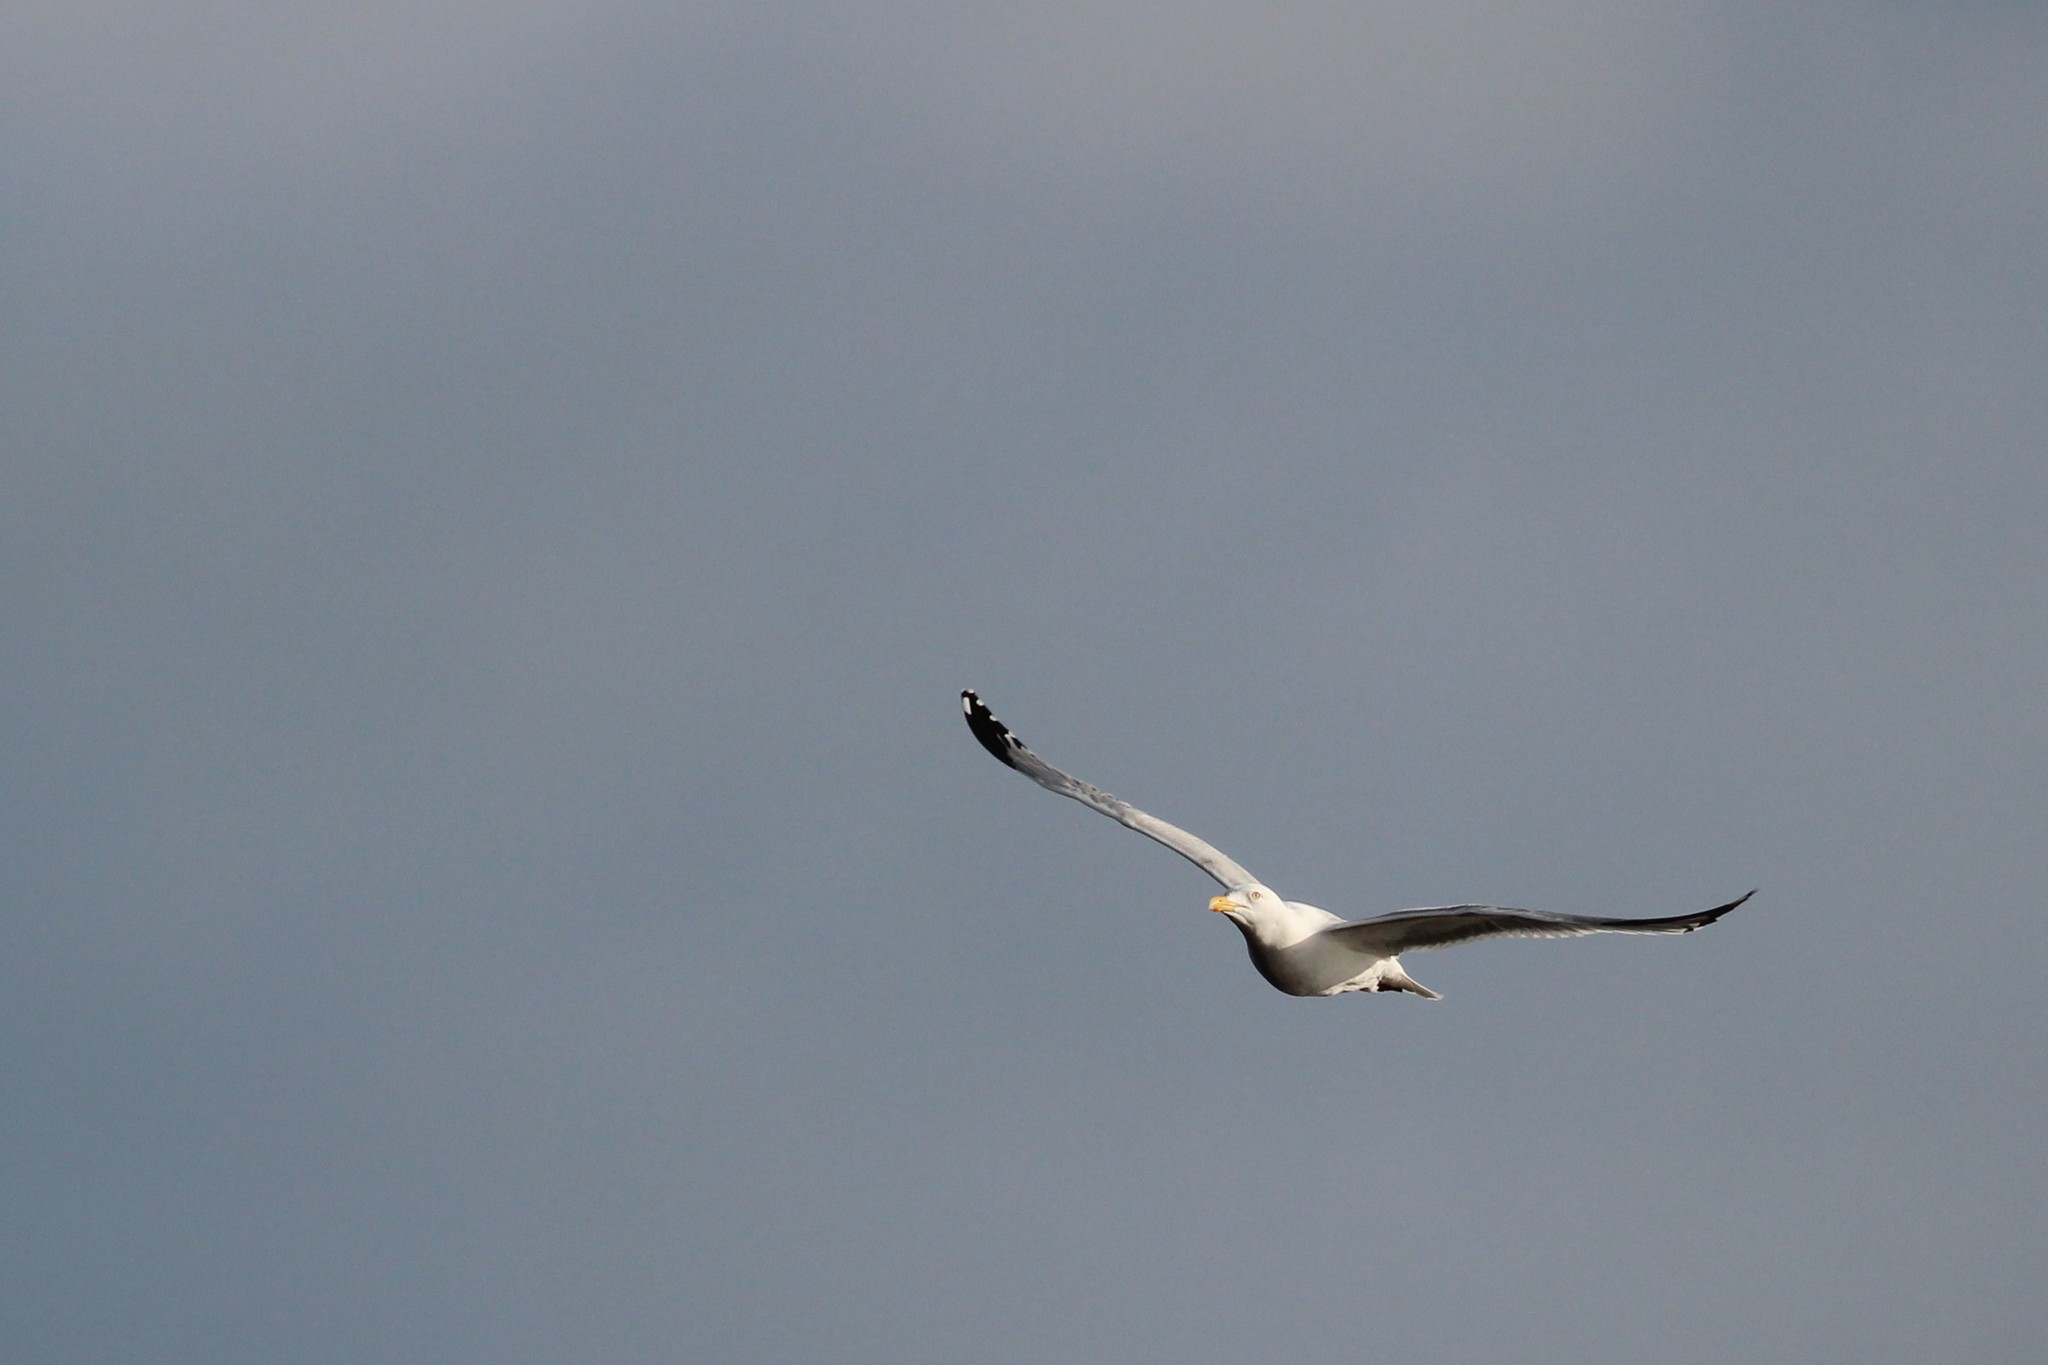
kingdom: Animalia
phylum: Chordata
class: Aves
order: Charadriiformes
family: Laridae
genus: Larus
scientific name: Larus argentatus
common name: Herring gull
